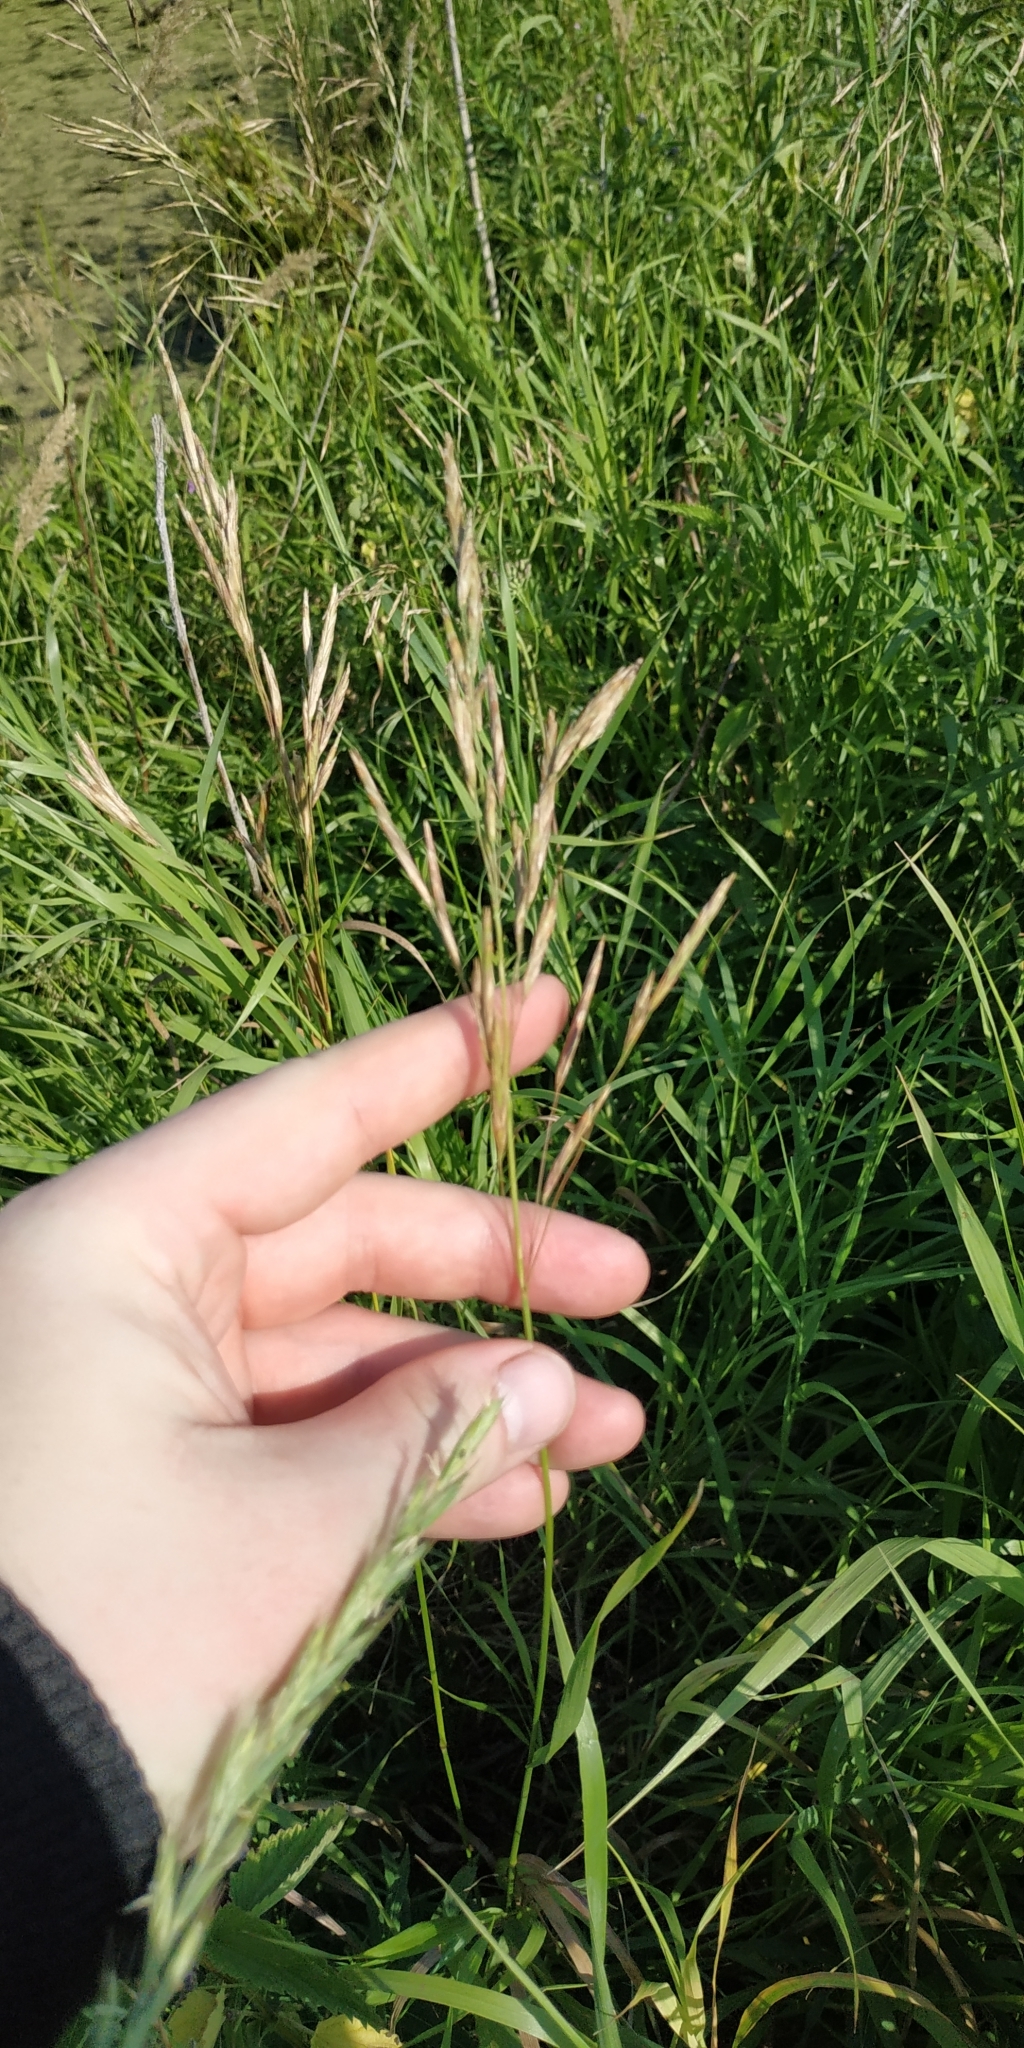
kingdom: Plantae
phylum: Tracheophyta
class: Liliopsida
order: Poales
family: Poaceae
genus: Bromus
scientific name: Bromus inermis
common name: Smooth brome
